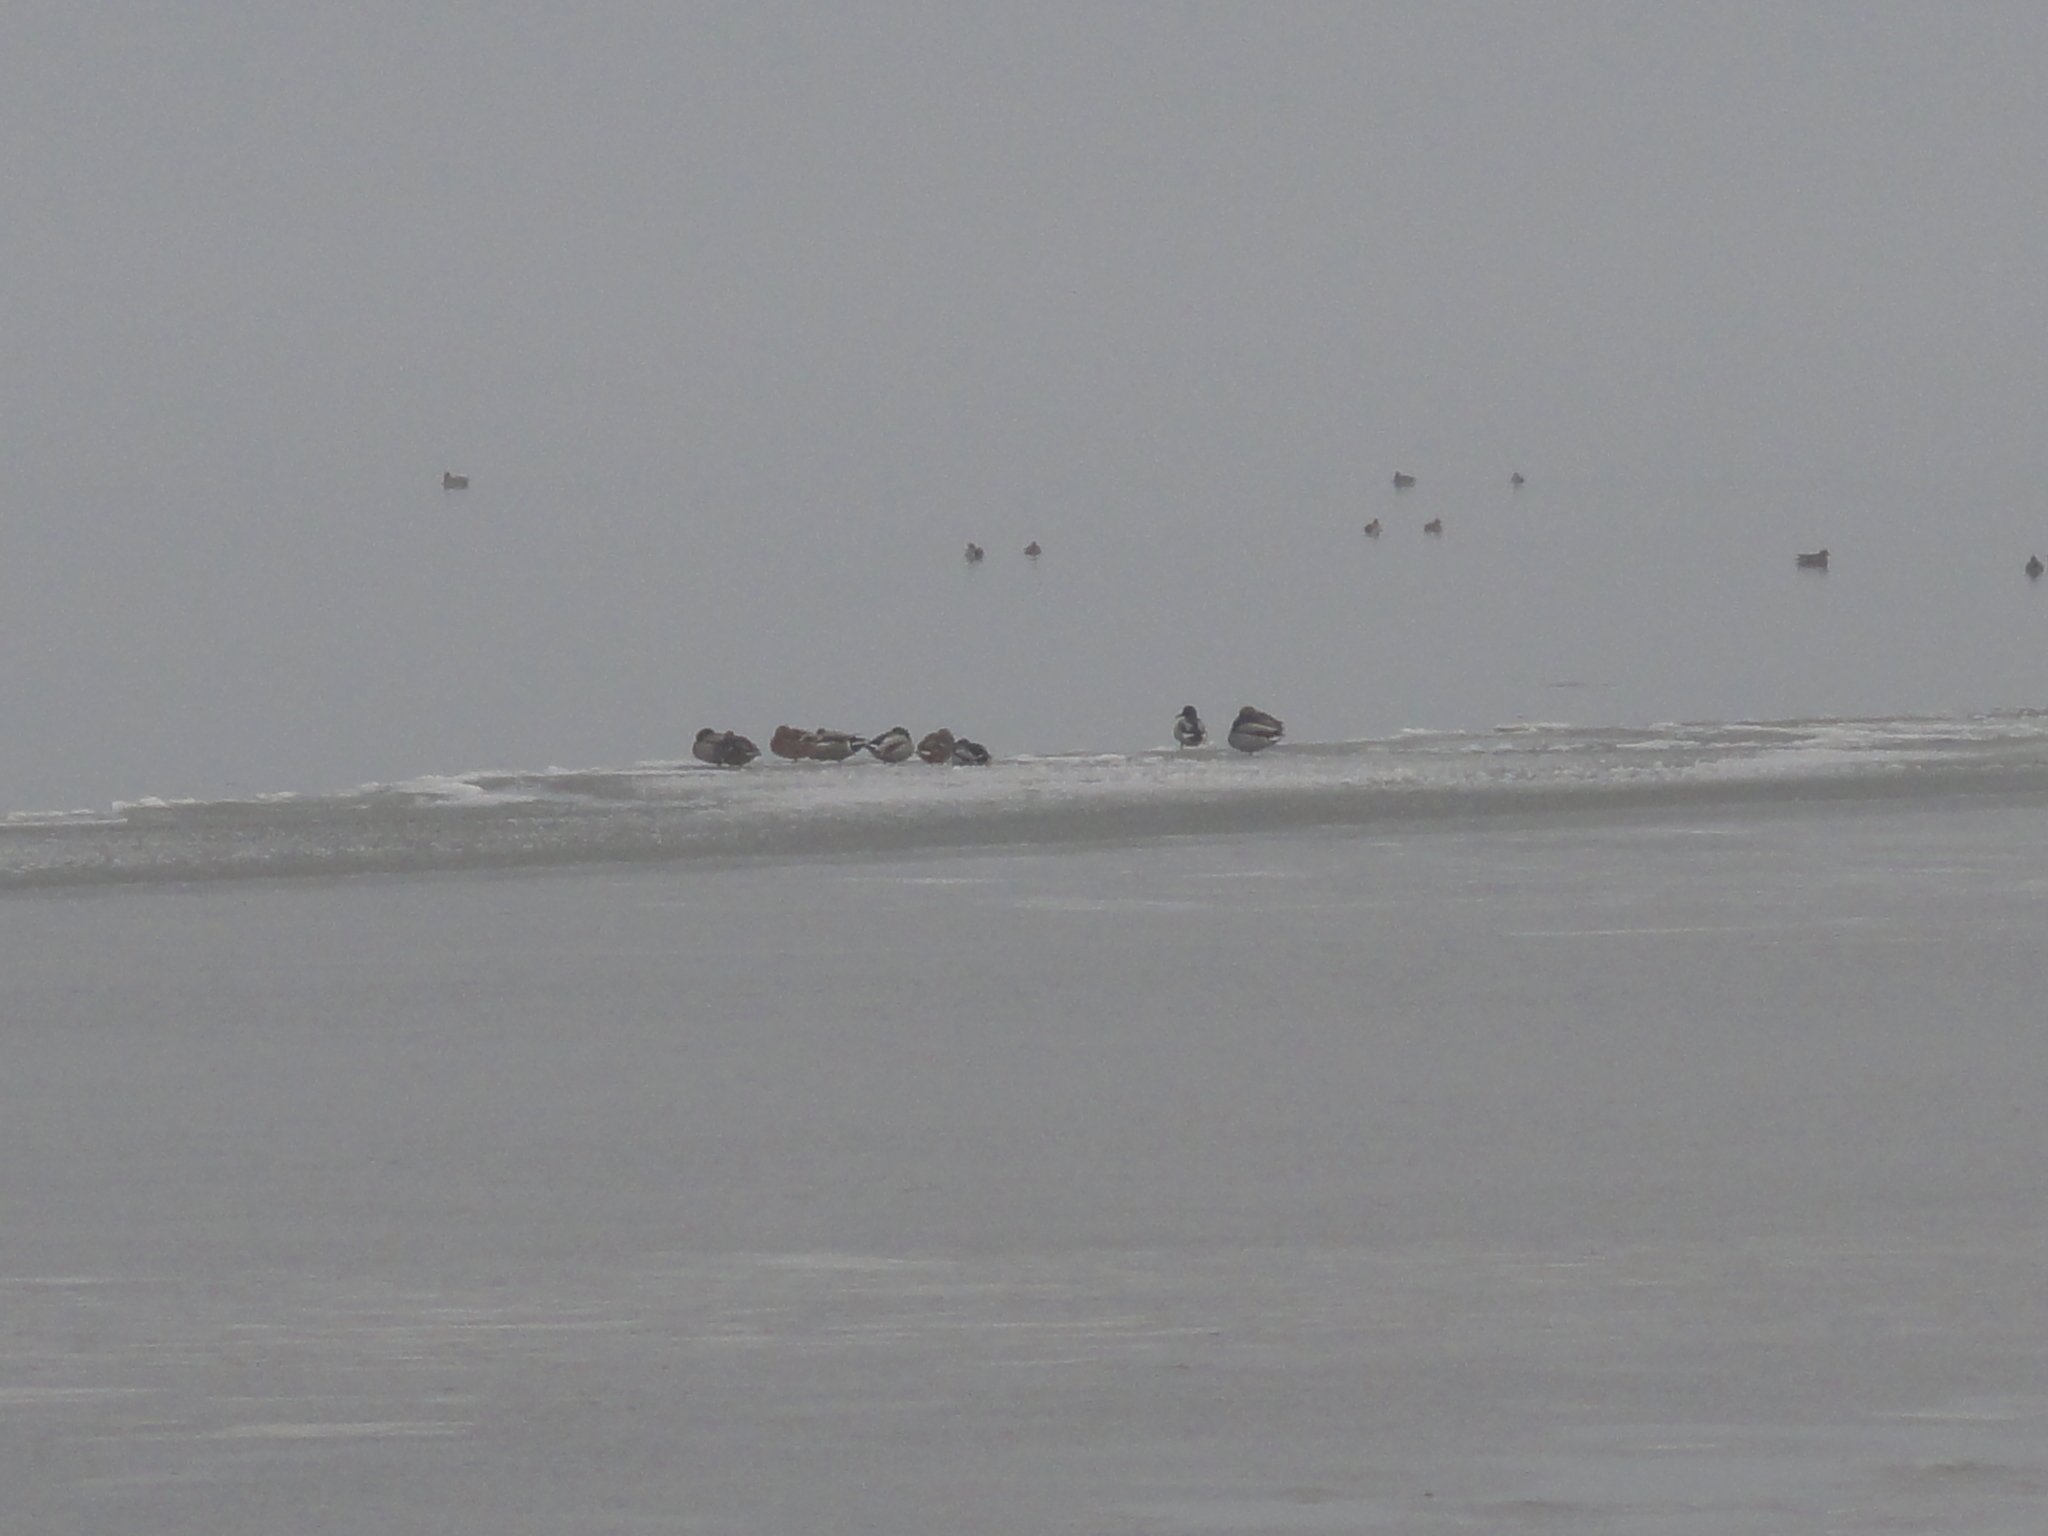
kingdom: Animalia
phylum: Chordata
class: Aves
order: Anseriformes
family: Anatidae
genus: Anas
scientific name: Anas platyrhynchos
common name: Mallard
